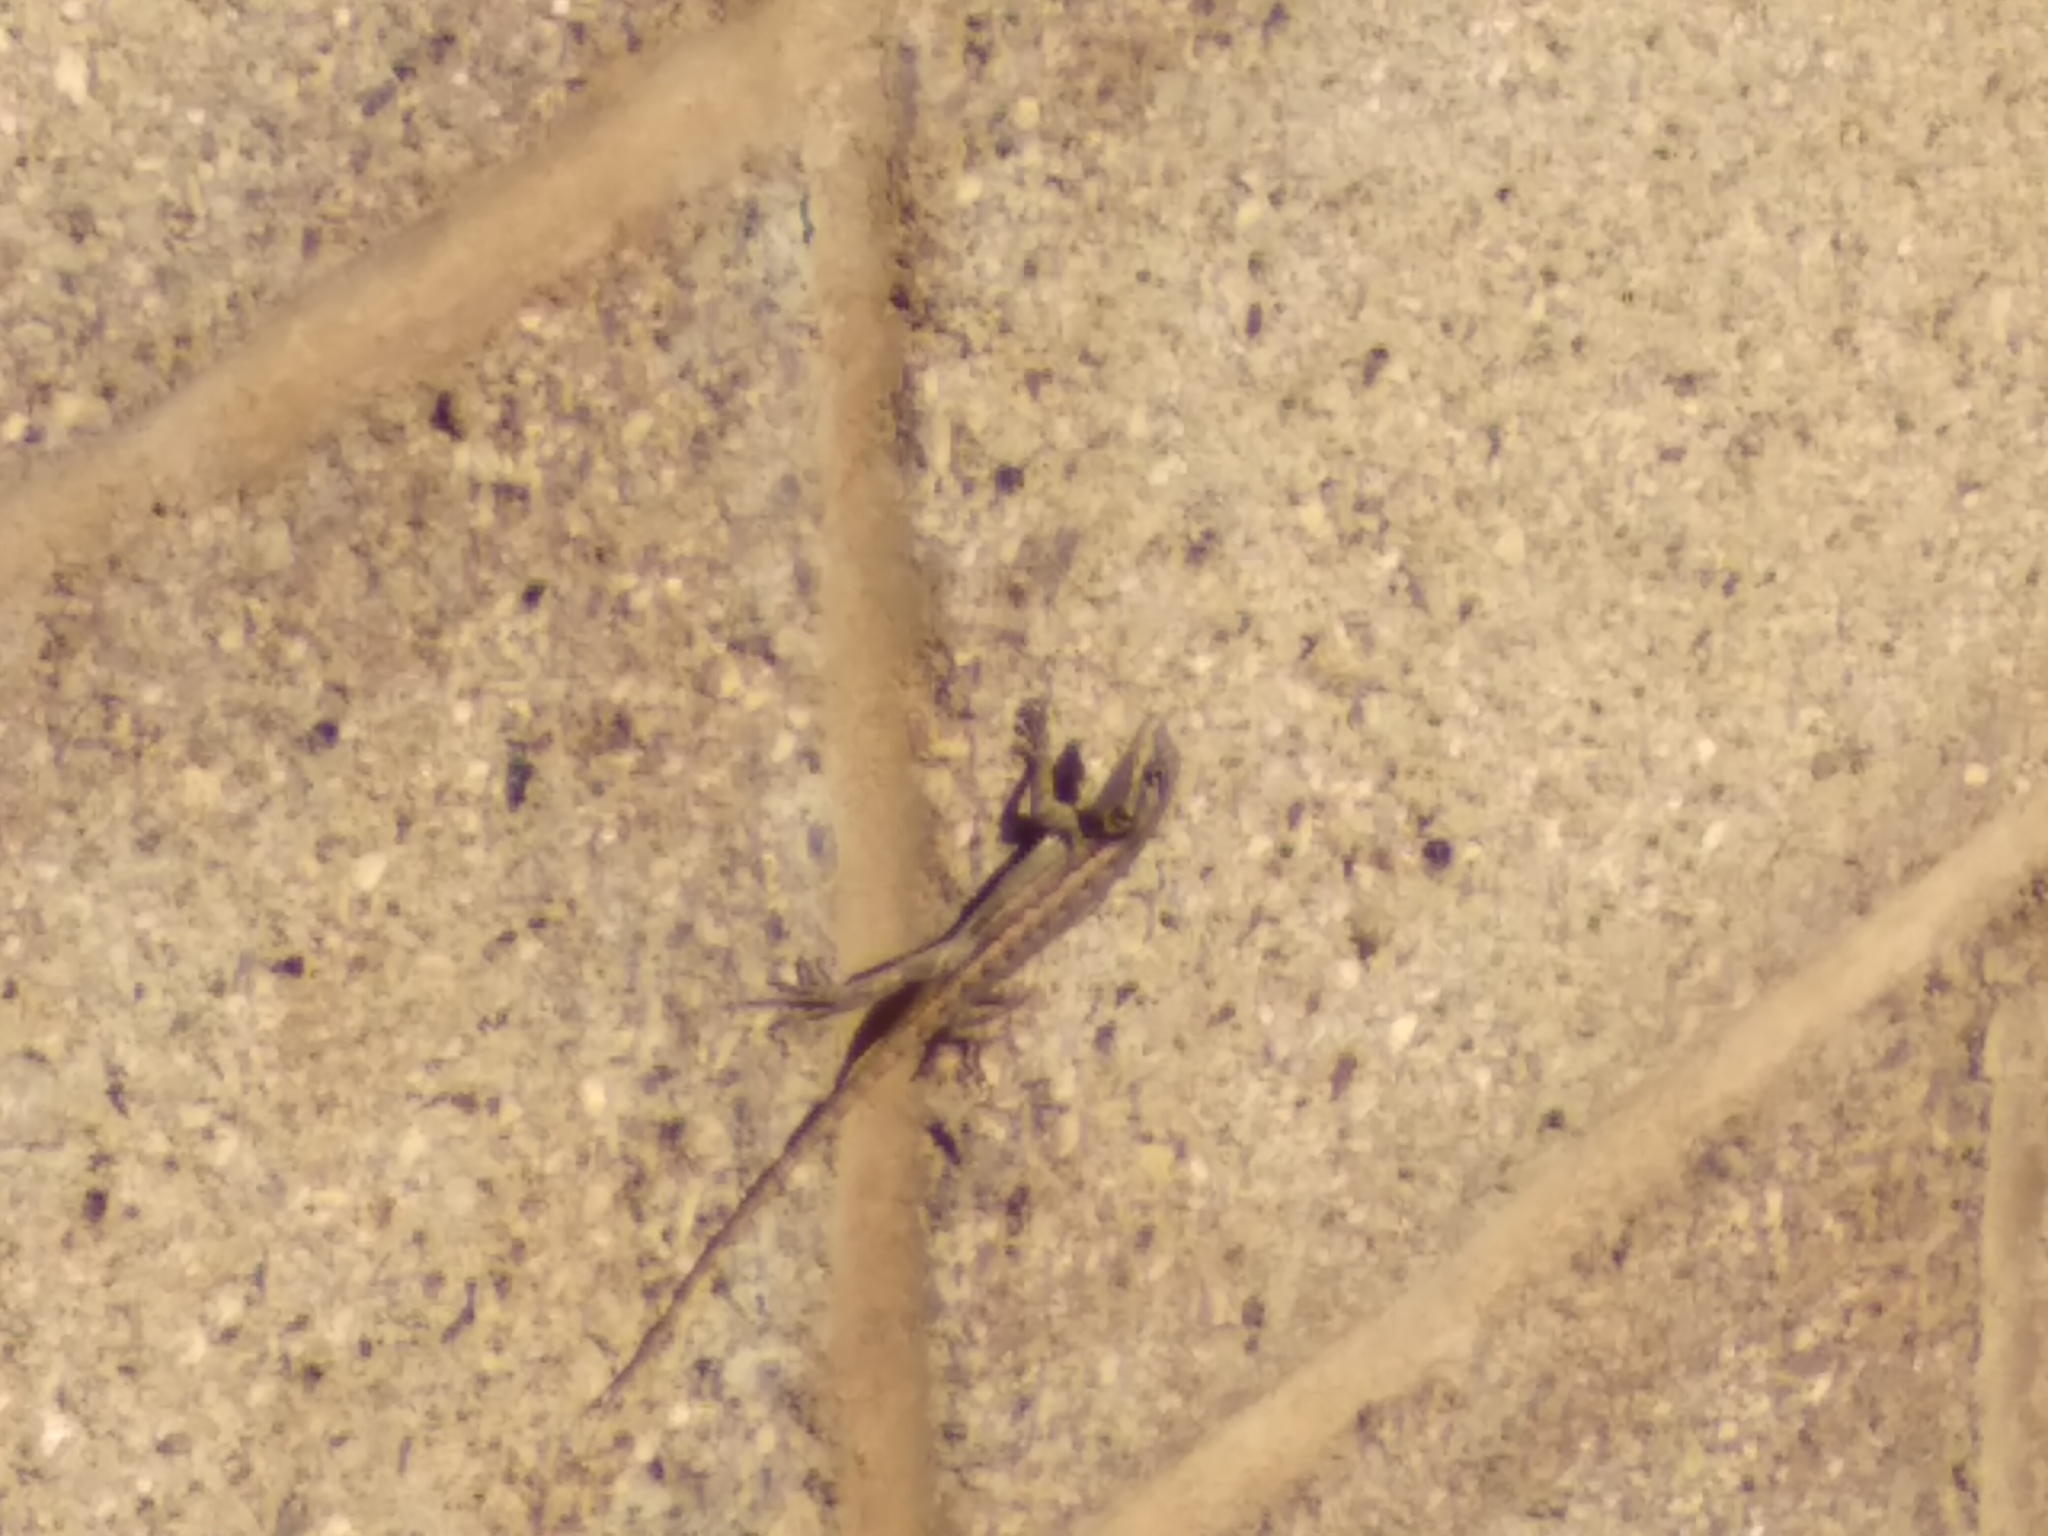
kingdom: Animalia
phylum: Chordata
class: Squamata
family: Phrynosomatidae
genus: Sceloporus
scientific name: Sceloporus occidentalis
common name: Western fence lizard
